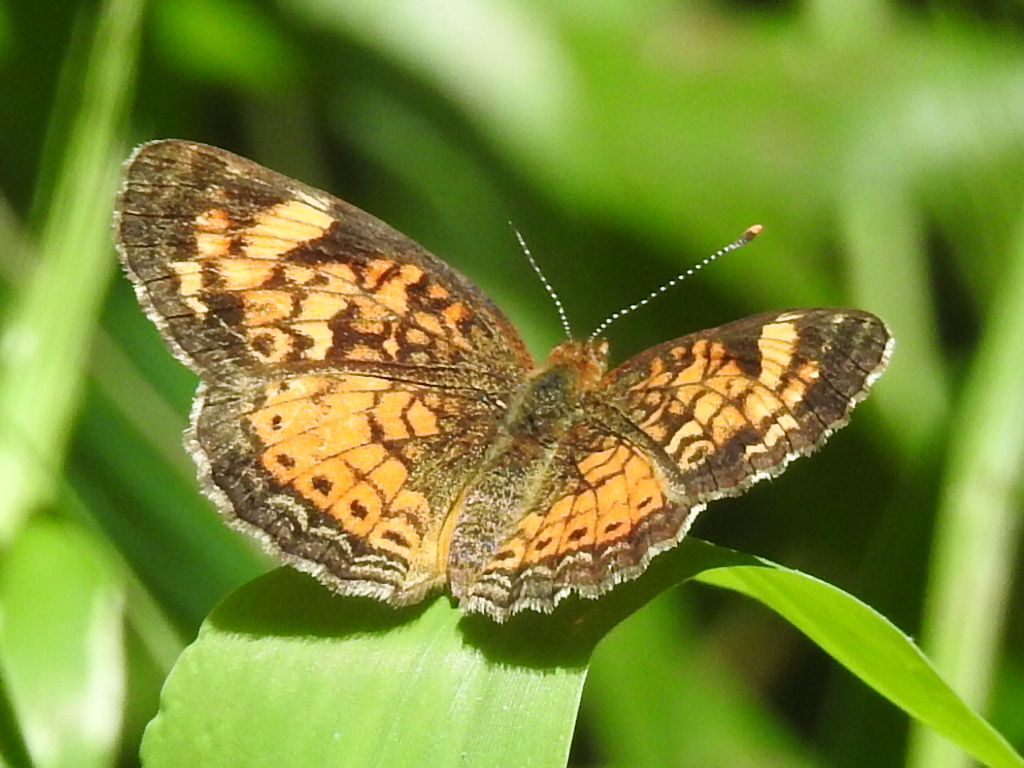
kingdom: Animalia
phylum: Arthropoda
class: Insecta
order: Lepidoptera
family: Nymphalidae
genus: Phyciodes
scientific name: Phyciodes tharos
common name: Pearl crescent
